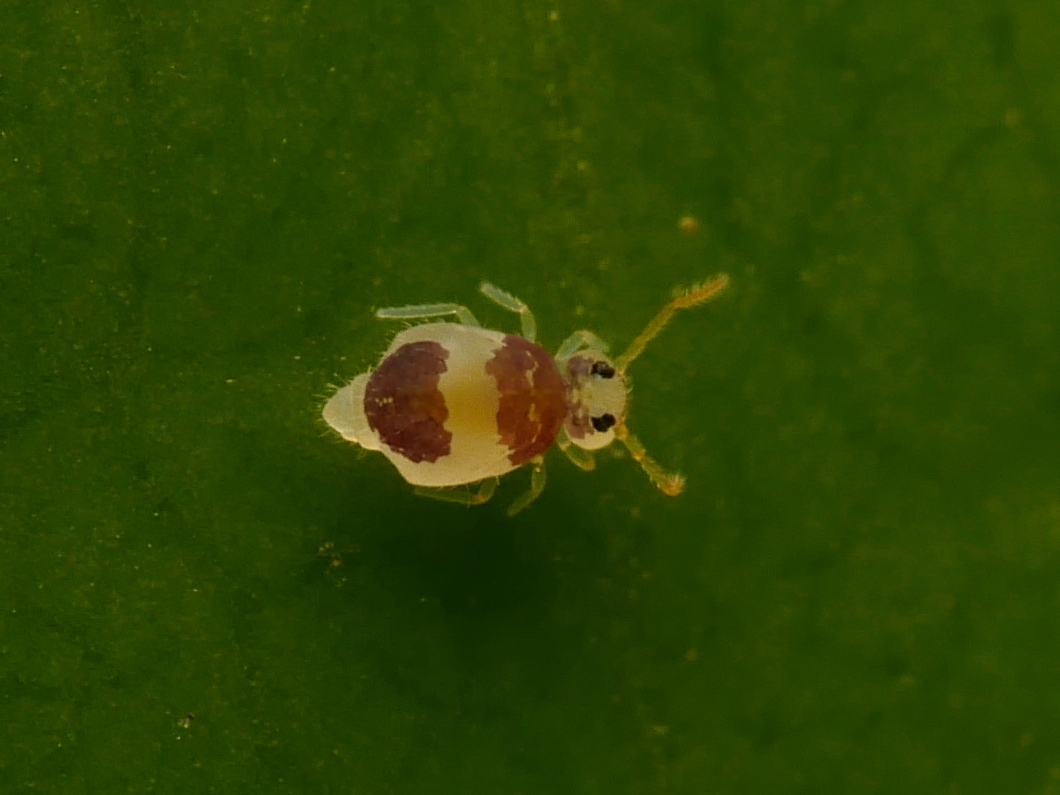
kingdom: Animalia
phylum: Arthropoda
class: Collembola
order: Symphypleona
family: Bourletiellidae
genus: Deuterosminthurus
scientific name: Deuterosminthurus bicinctus
